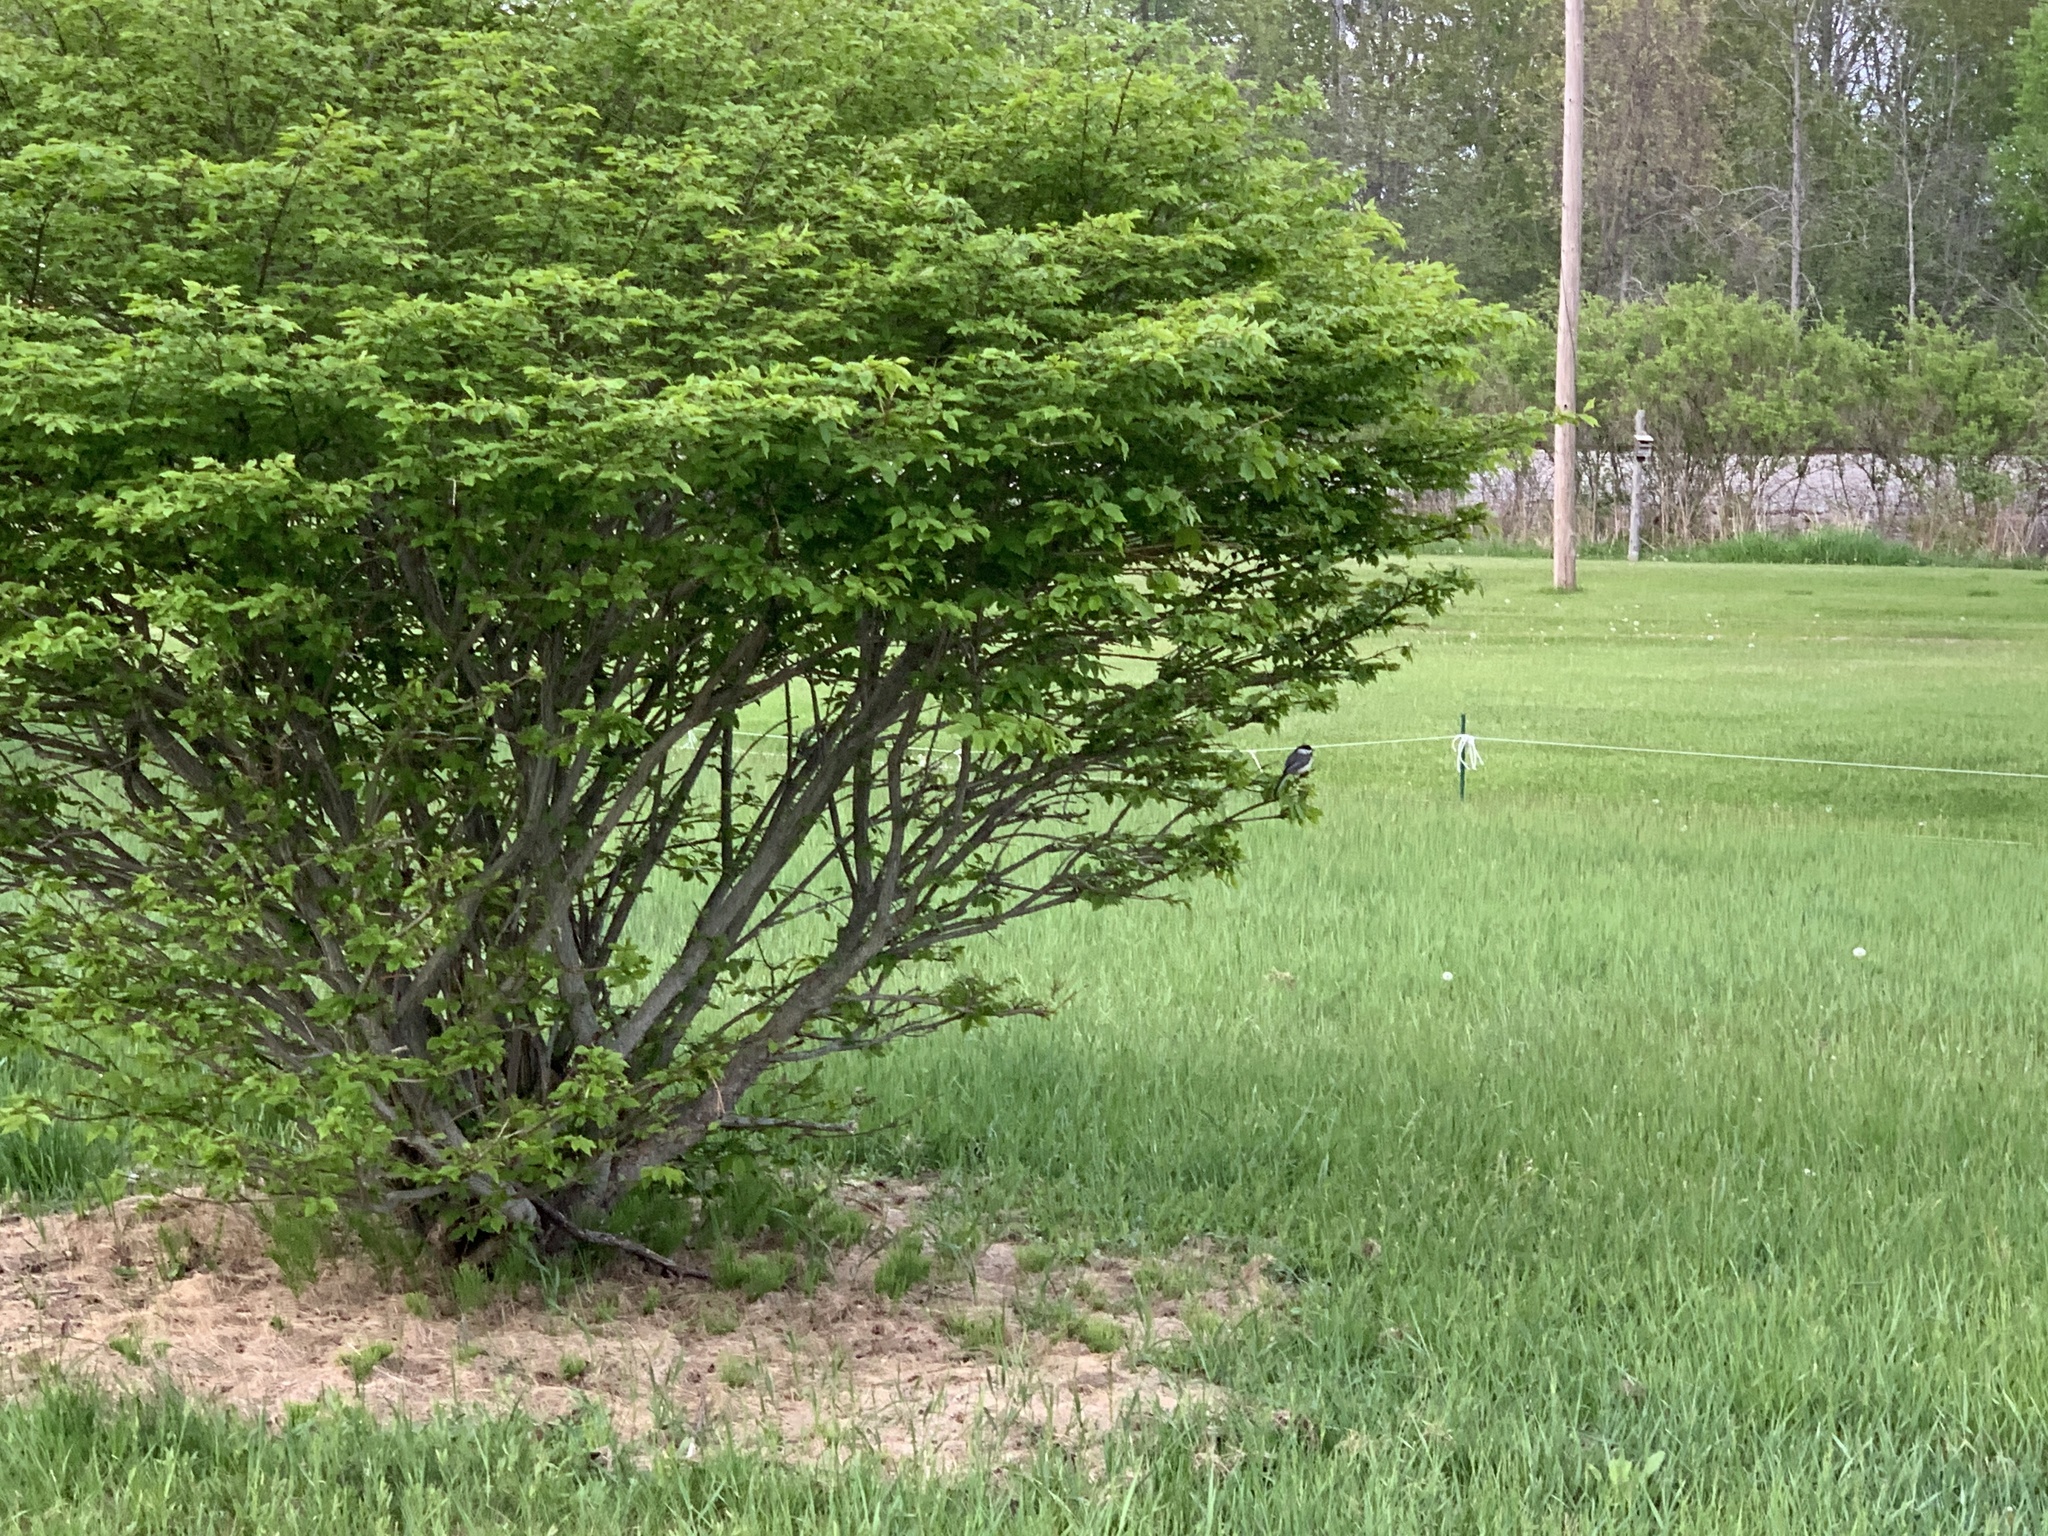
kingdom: Animalia
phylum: Chordata
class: Aves
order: Passeriformes
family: Paridae
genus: Poecile
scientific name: Poecile atricapillus
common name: Black-capped chickadee
